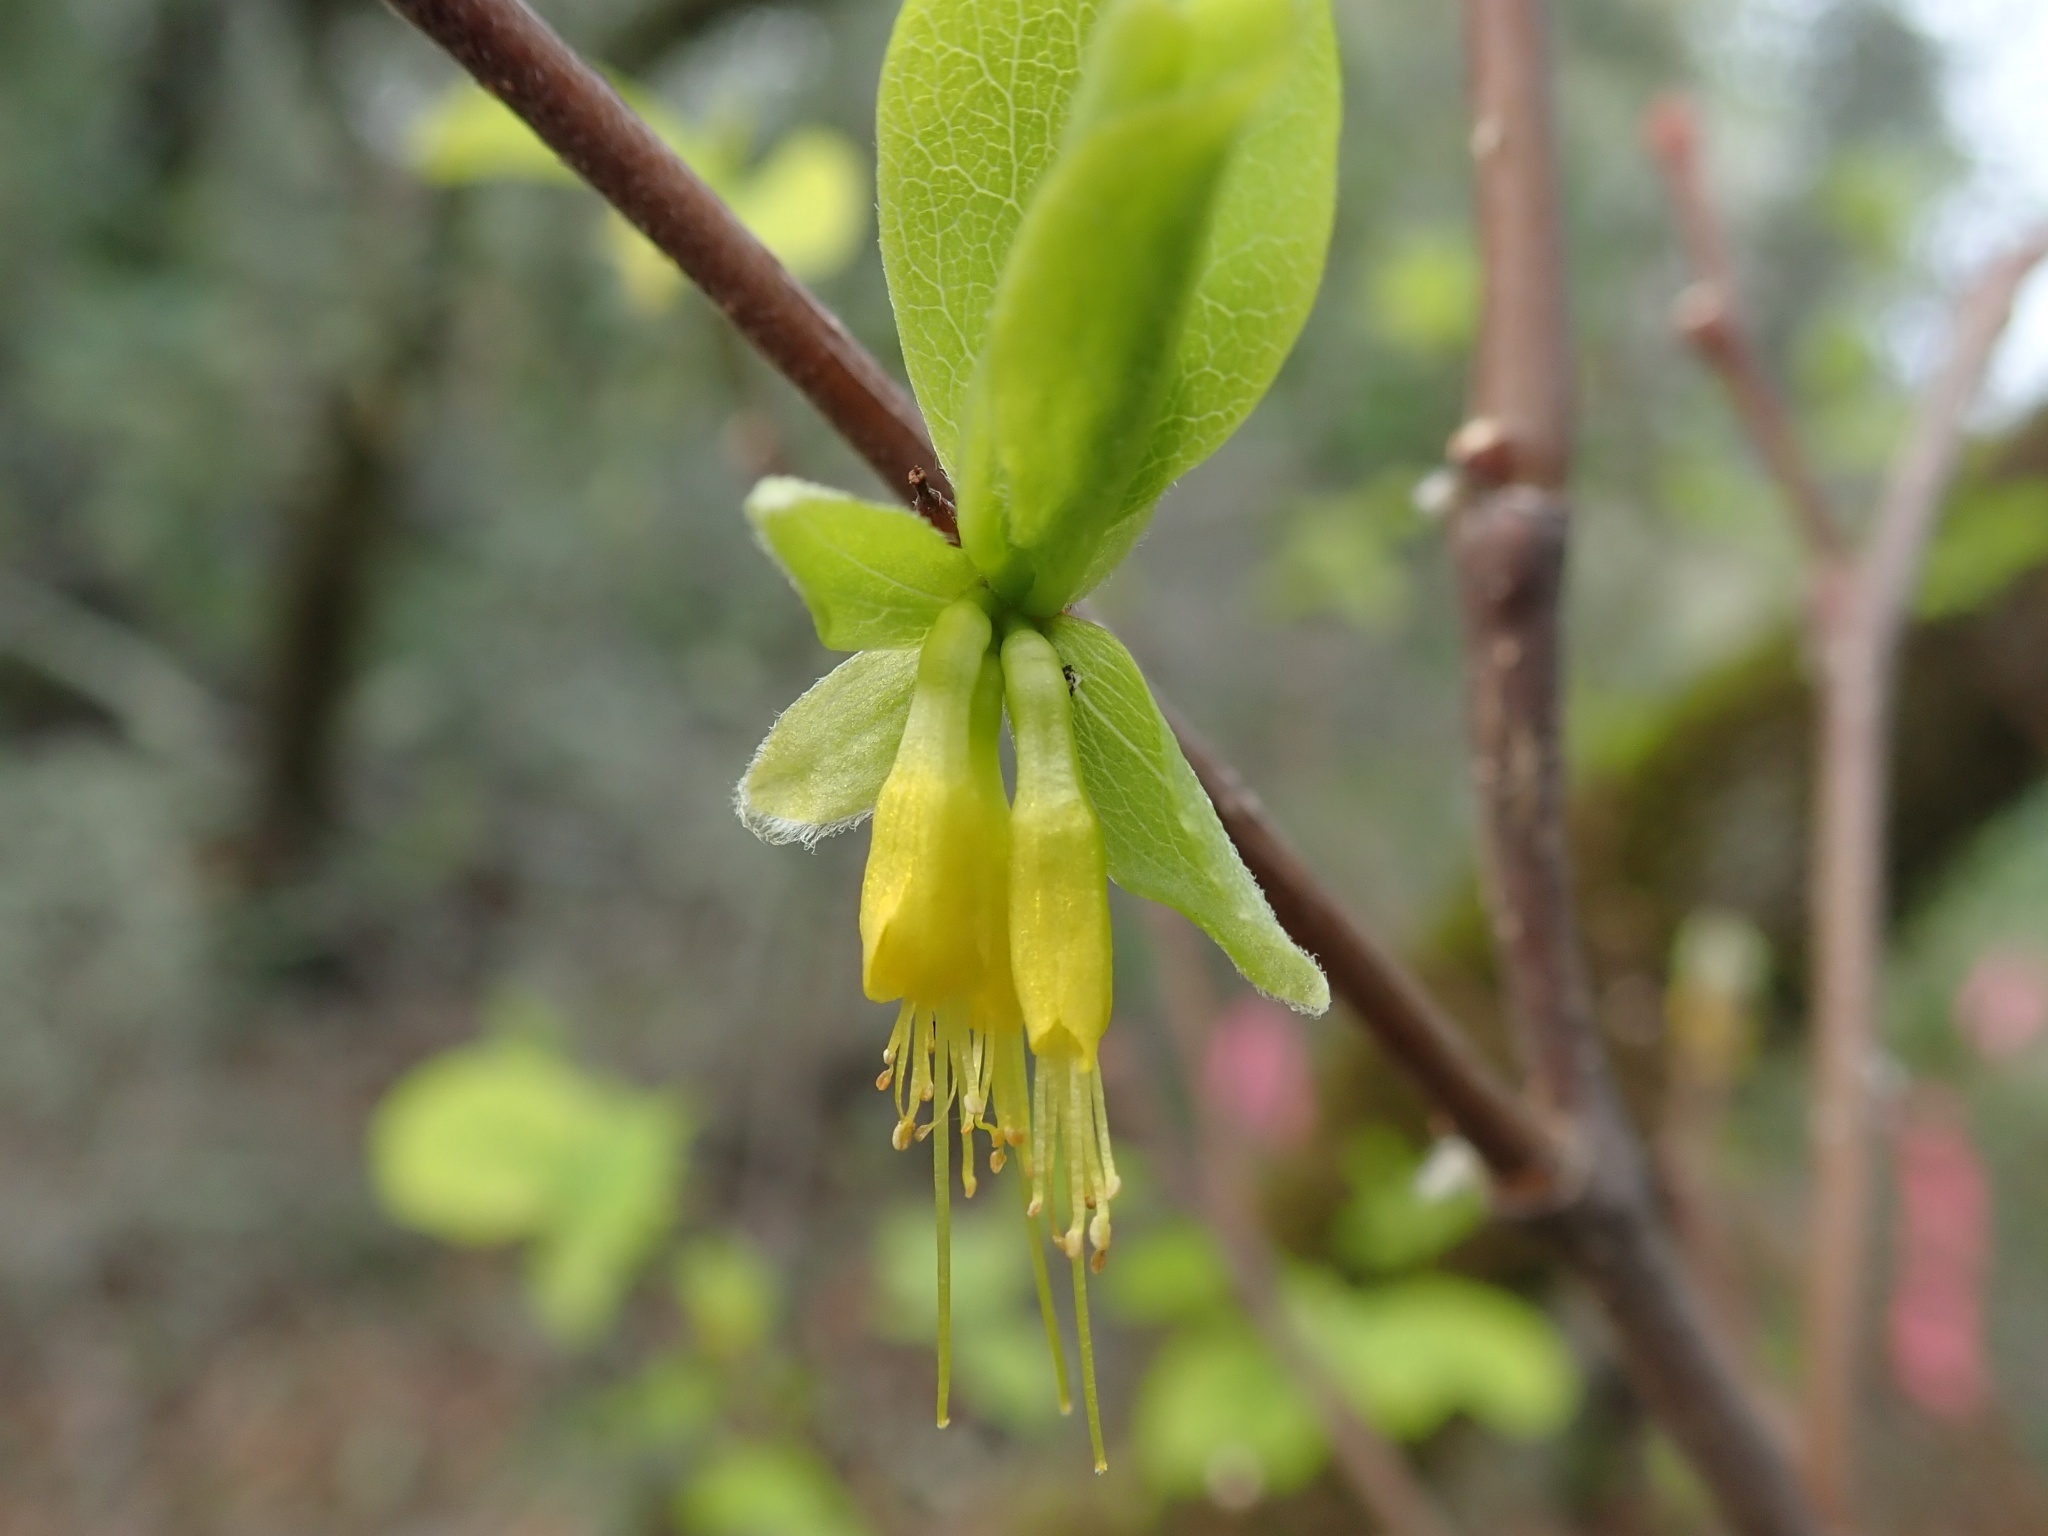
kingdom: Plantae
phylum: Tracheophyta
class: Magnoliopsida
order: Malvales
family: Thymelaeaceae
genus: Dirca
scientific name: Dirca occidentalis
